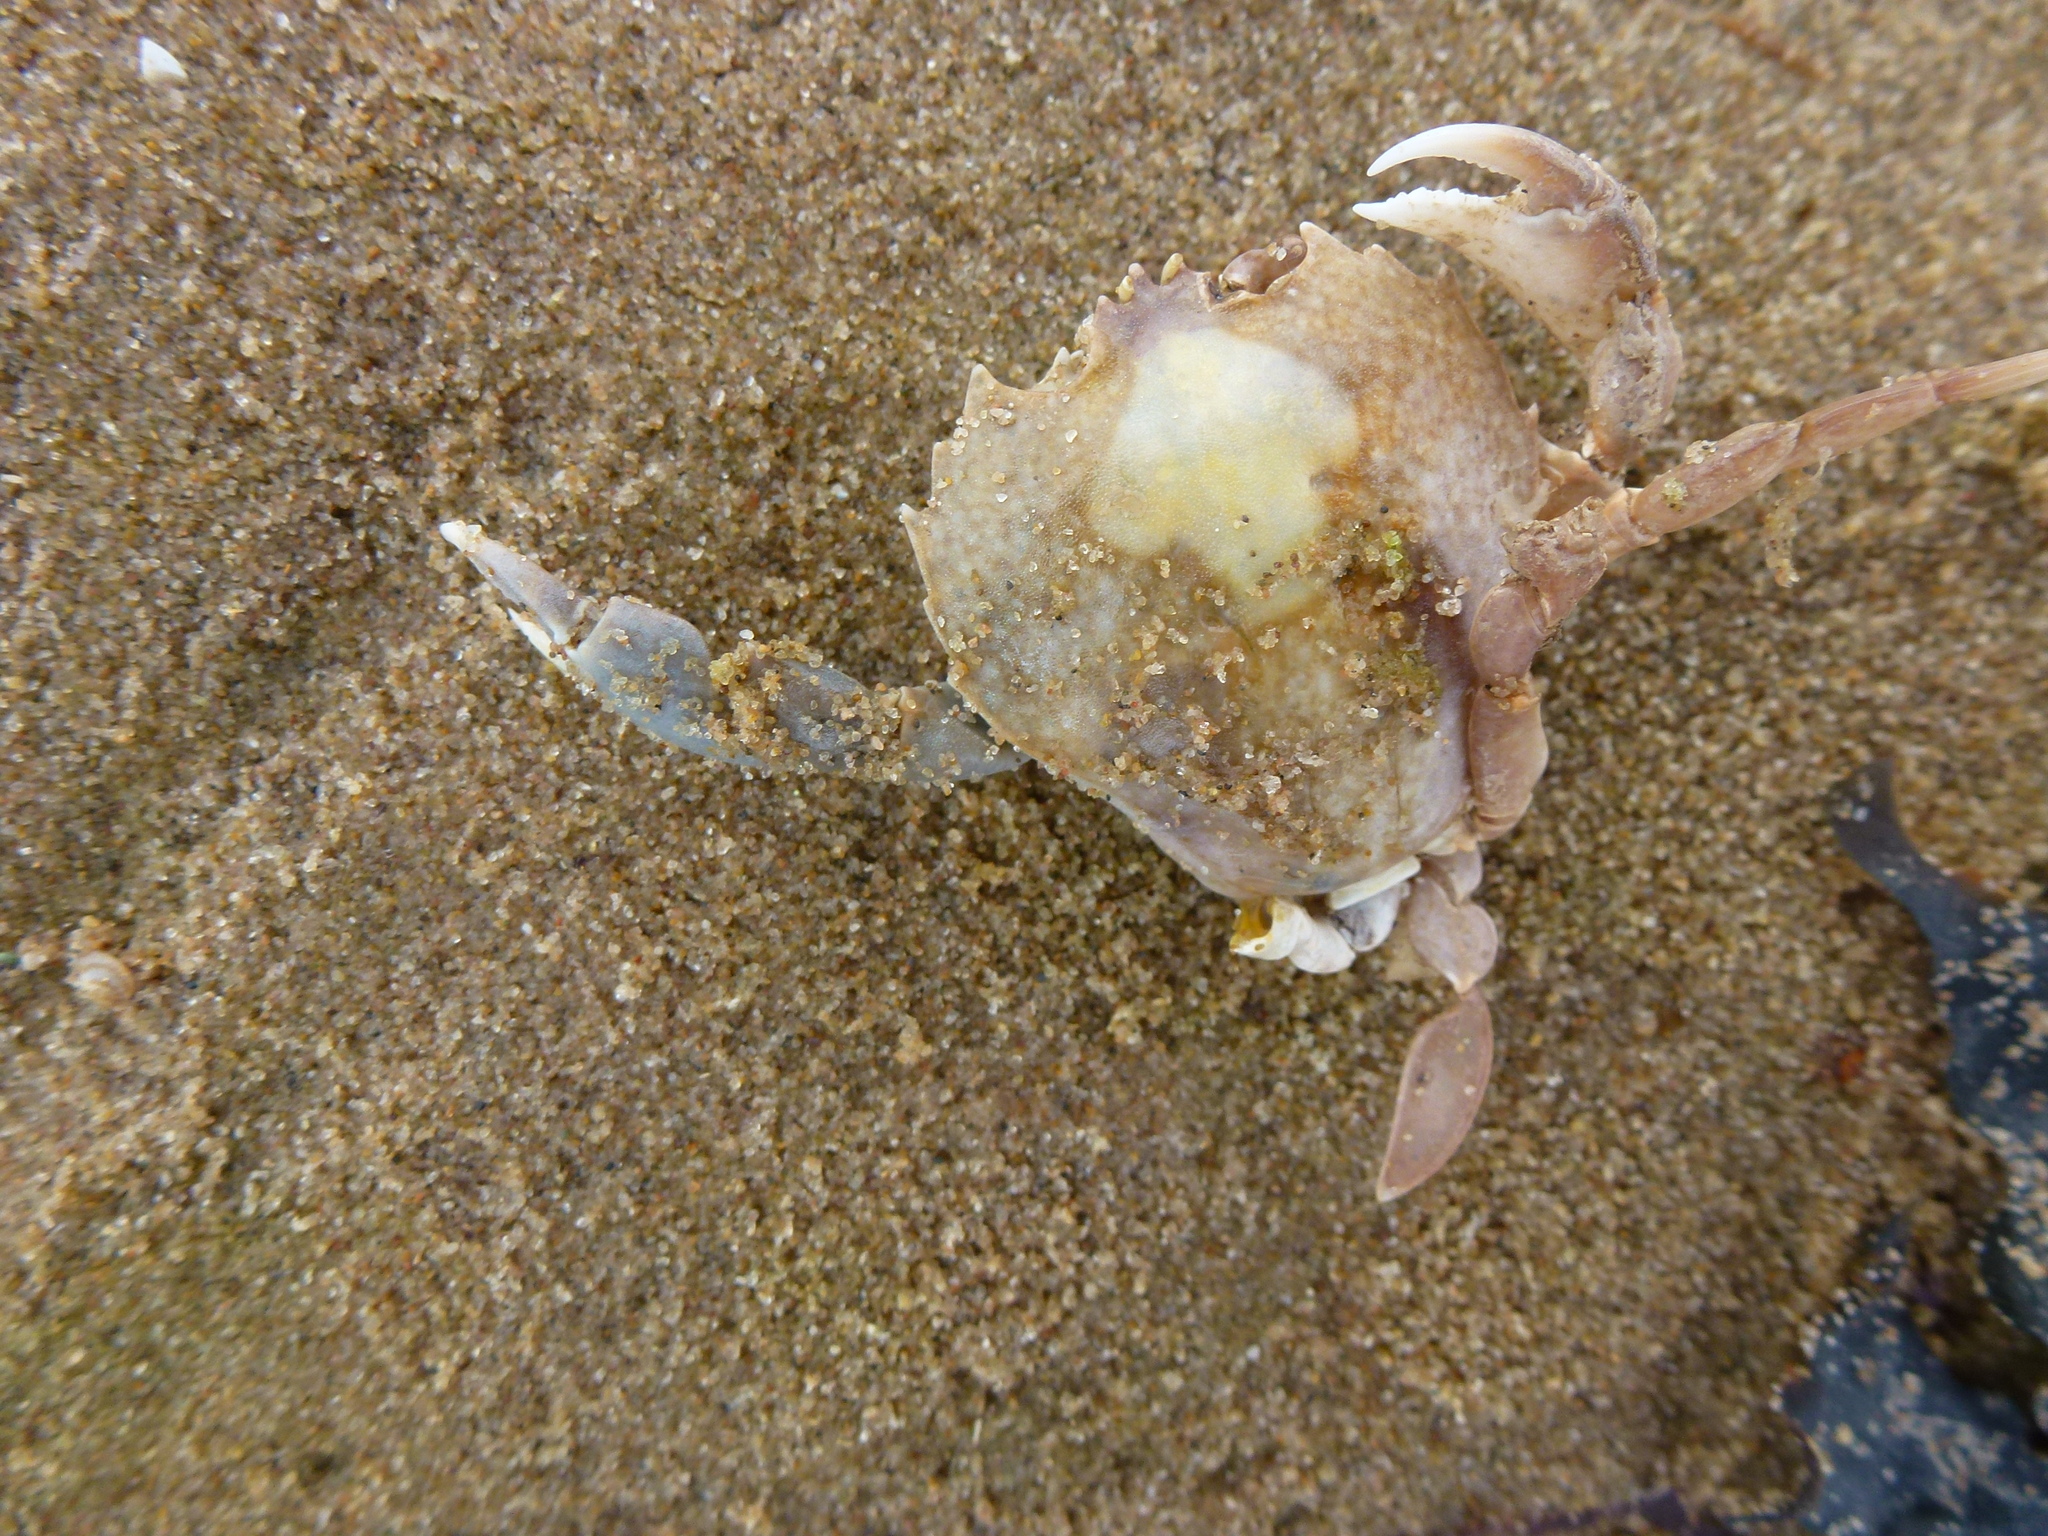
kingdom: Animalia
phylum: Arthropoda
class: Malacostraca
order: Decapoda
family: Carcinidae
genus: Portumnus
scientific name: Portumnus latipes
